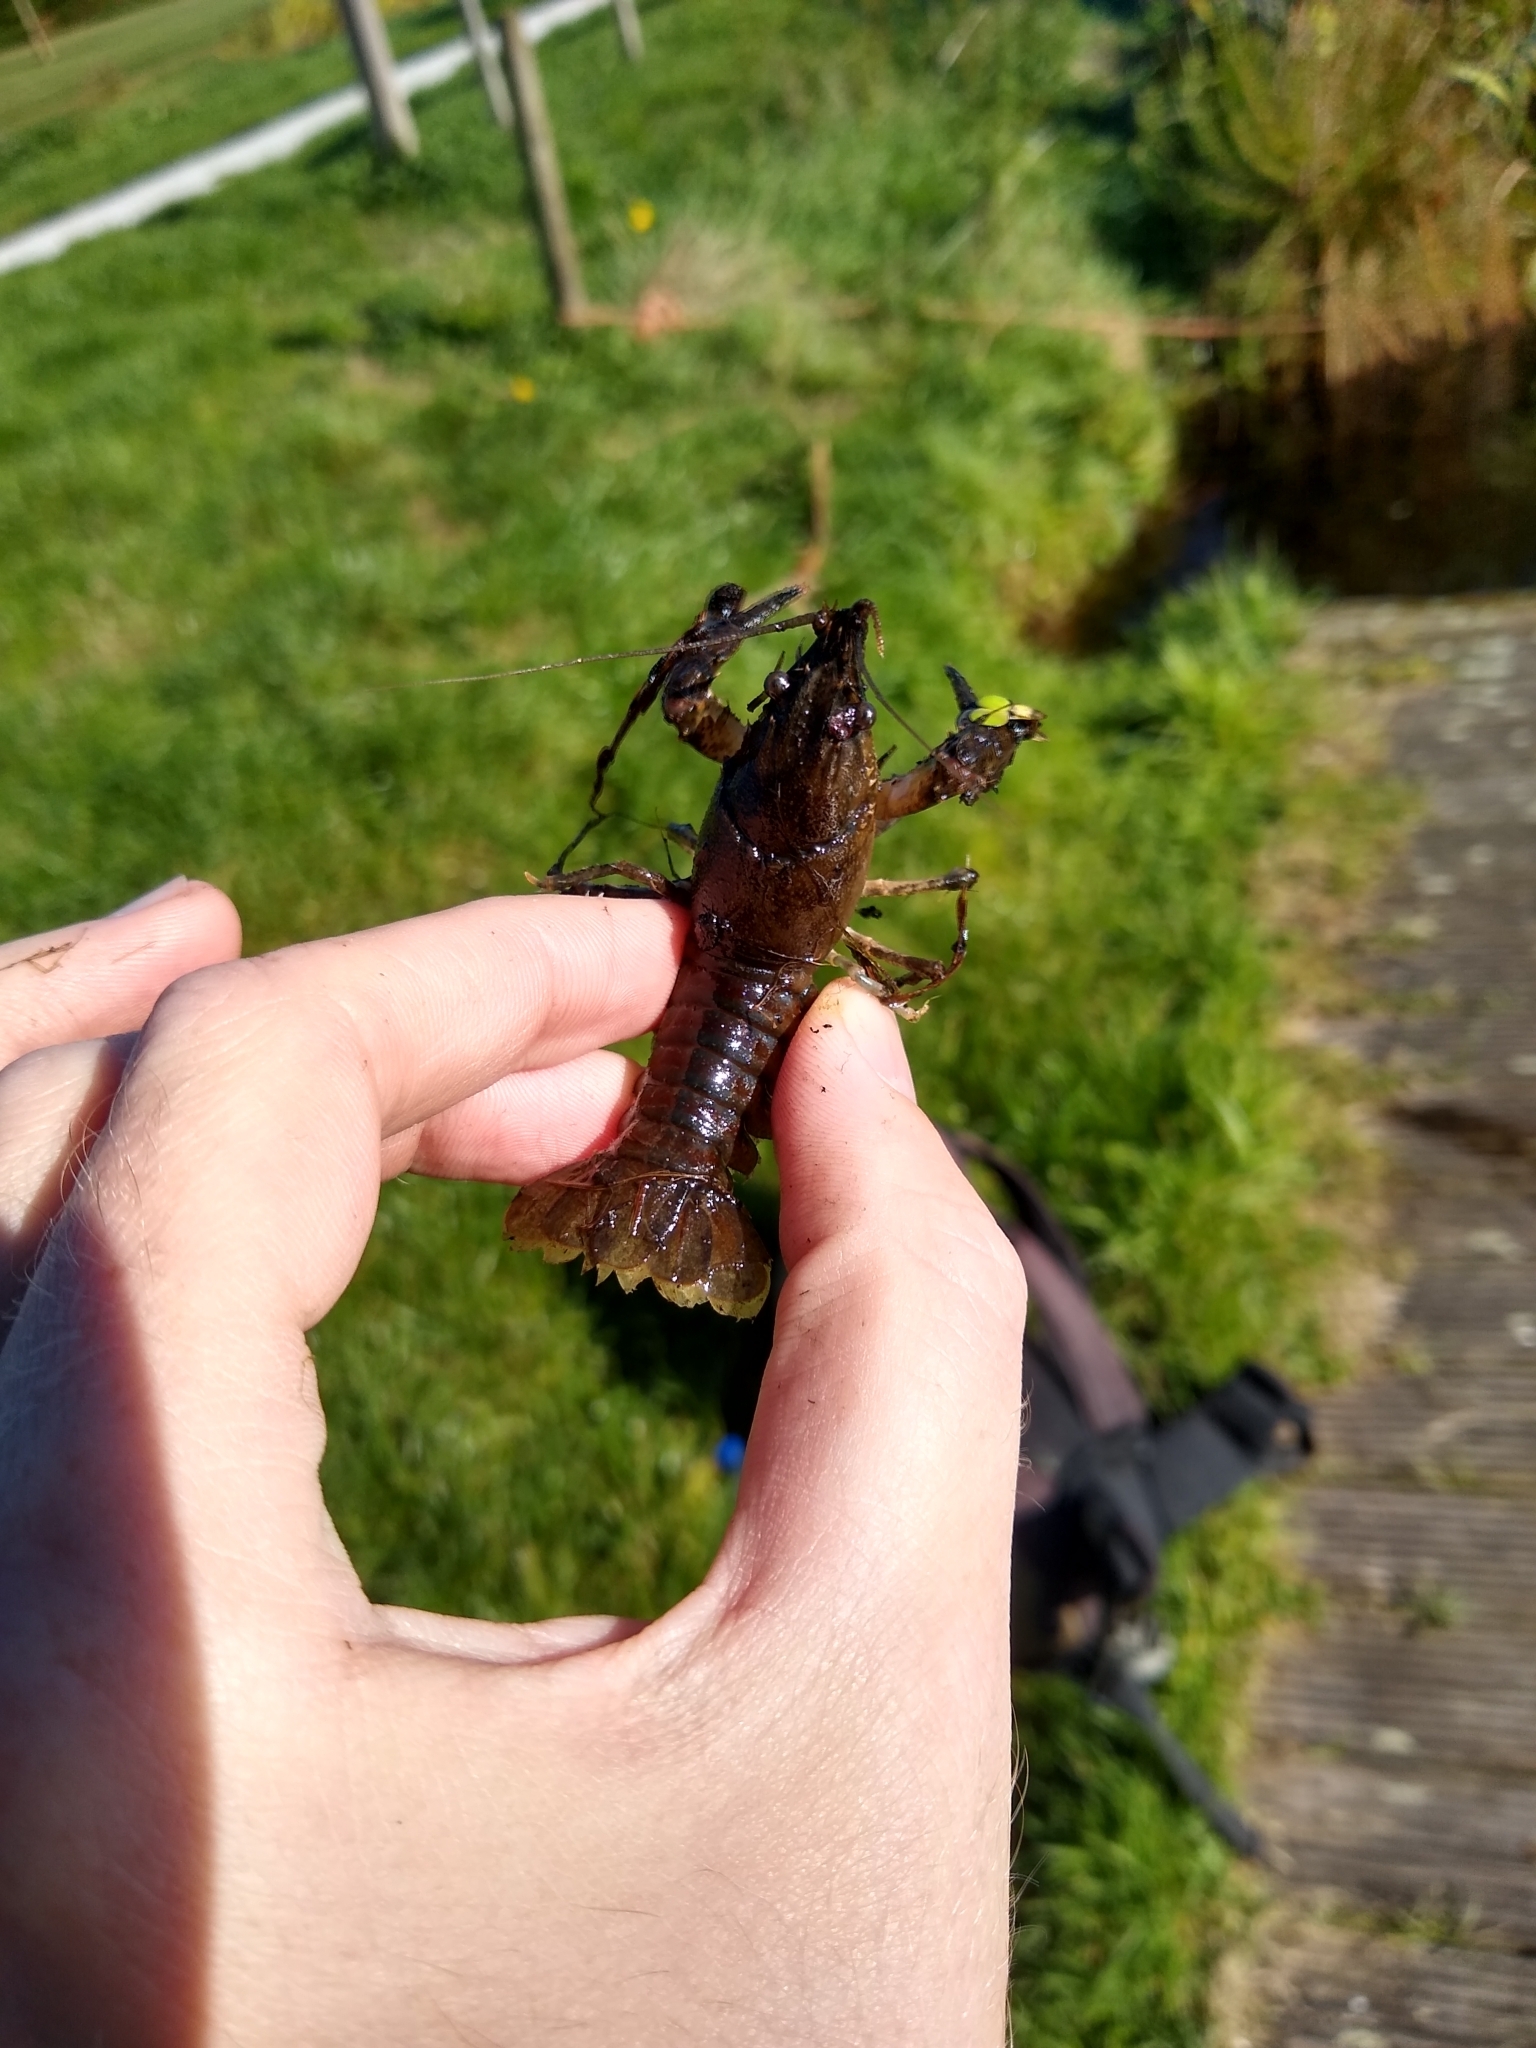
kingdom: Animalia
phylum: Arthropoda
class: Malacostraca
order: Decapoda
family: Cambaridae
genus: Faxonius
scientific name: Faxonius limosus
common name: American crayfish
